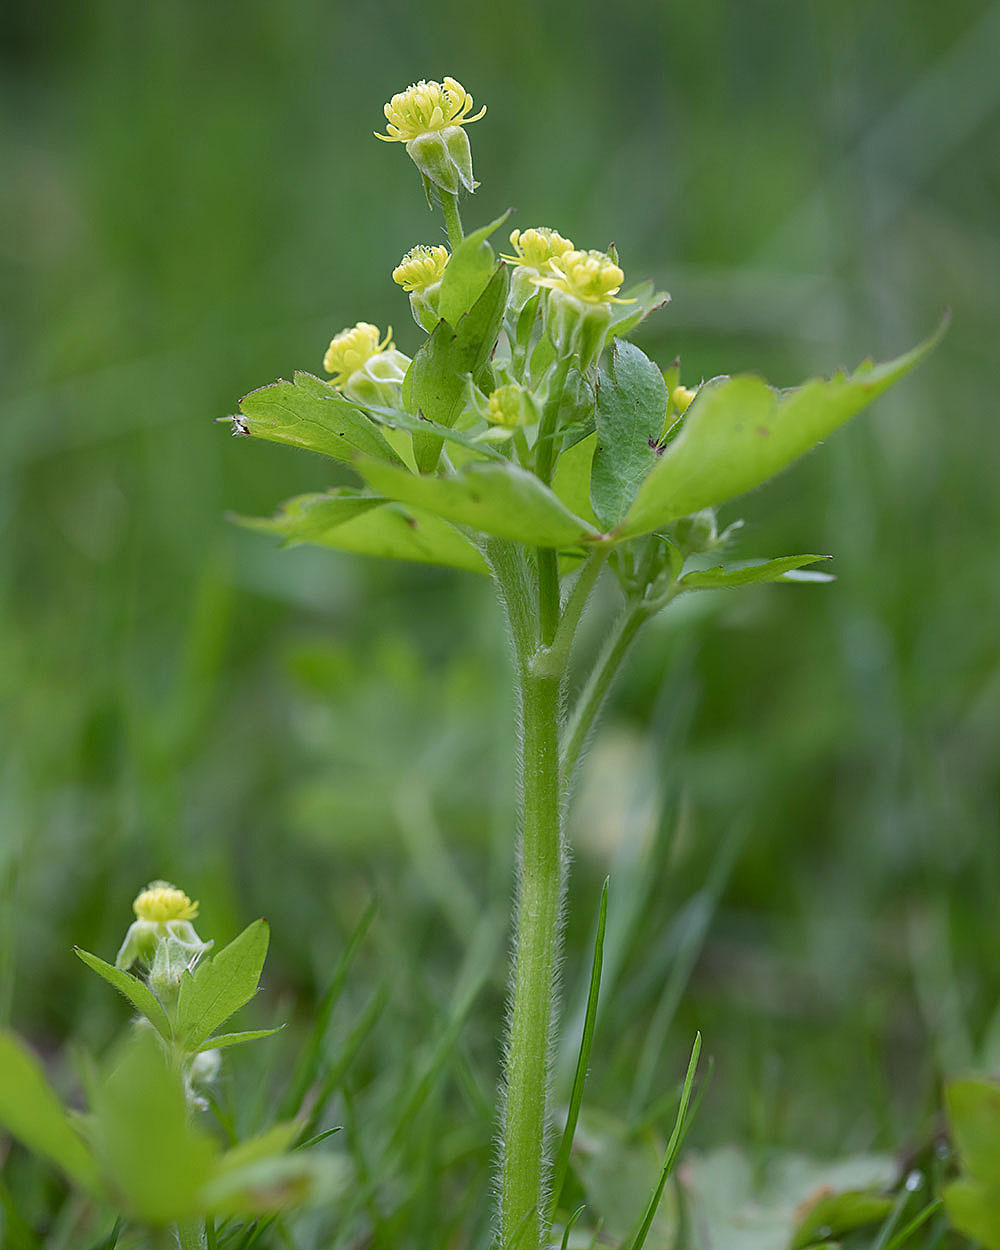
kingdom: Plantae
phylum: Tracheophyta
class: Magnoliopsida
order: Ranunculales
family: Ranunculaceae
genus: Ranunculus
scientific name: Ranunculus recurvatus
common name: Blisterwort
